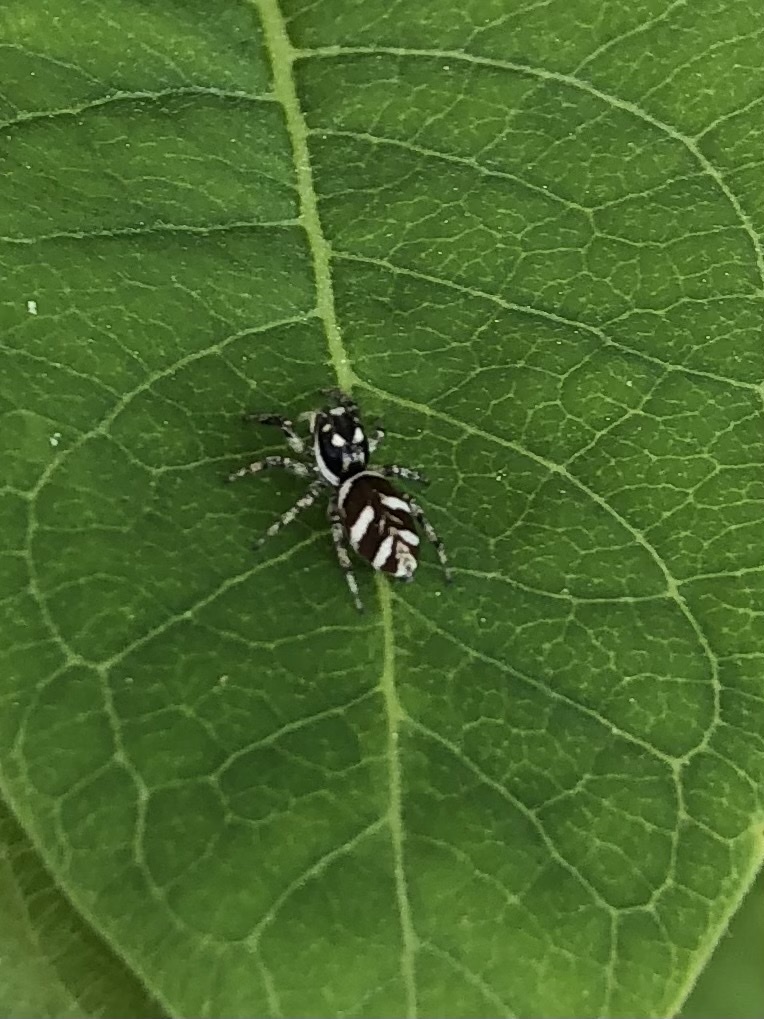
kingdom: Animalia
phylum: Arthropoda
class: Arachnida
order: Araneae
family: Salticidae
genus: Salticus
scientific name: Salticus scenicus
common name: Zebra jumper
